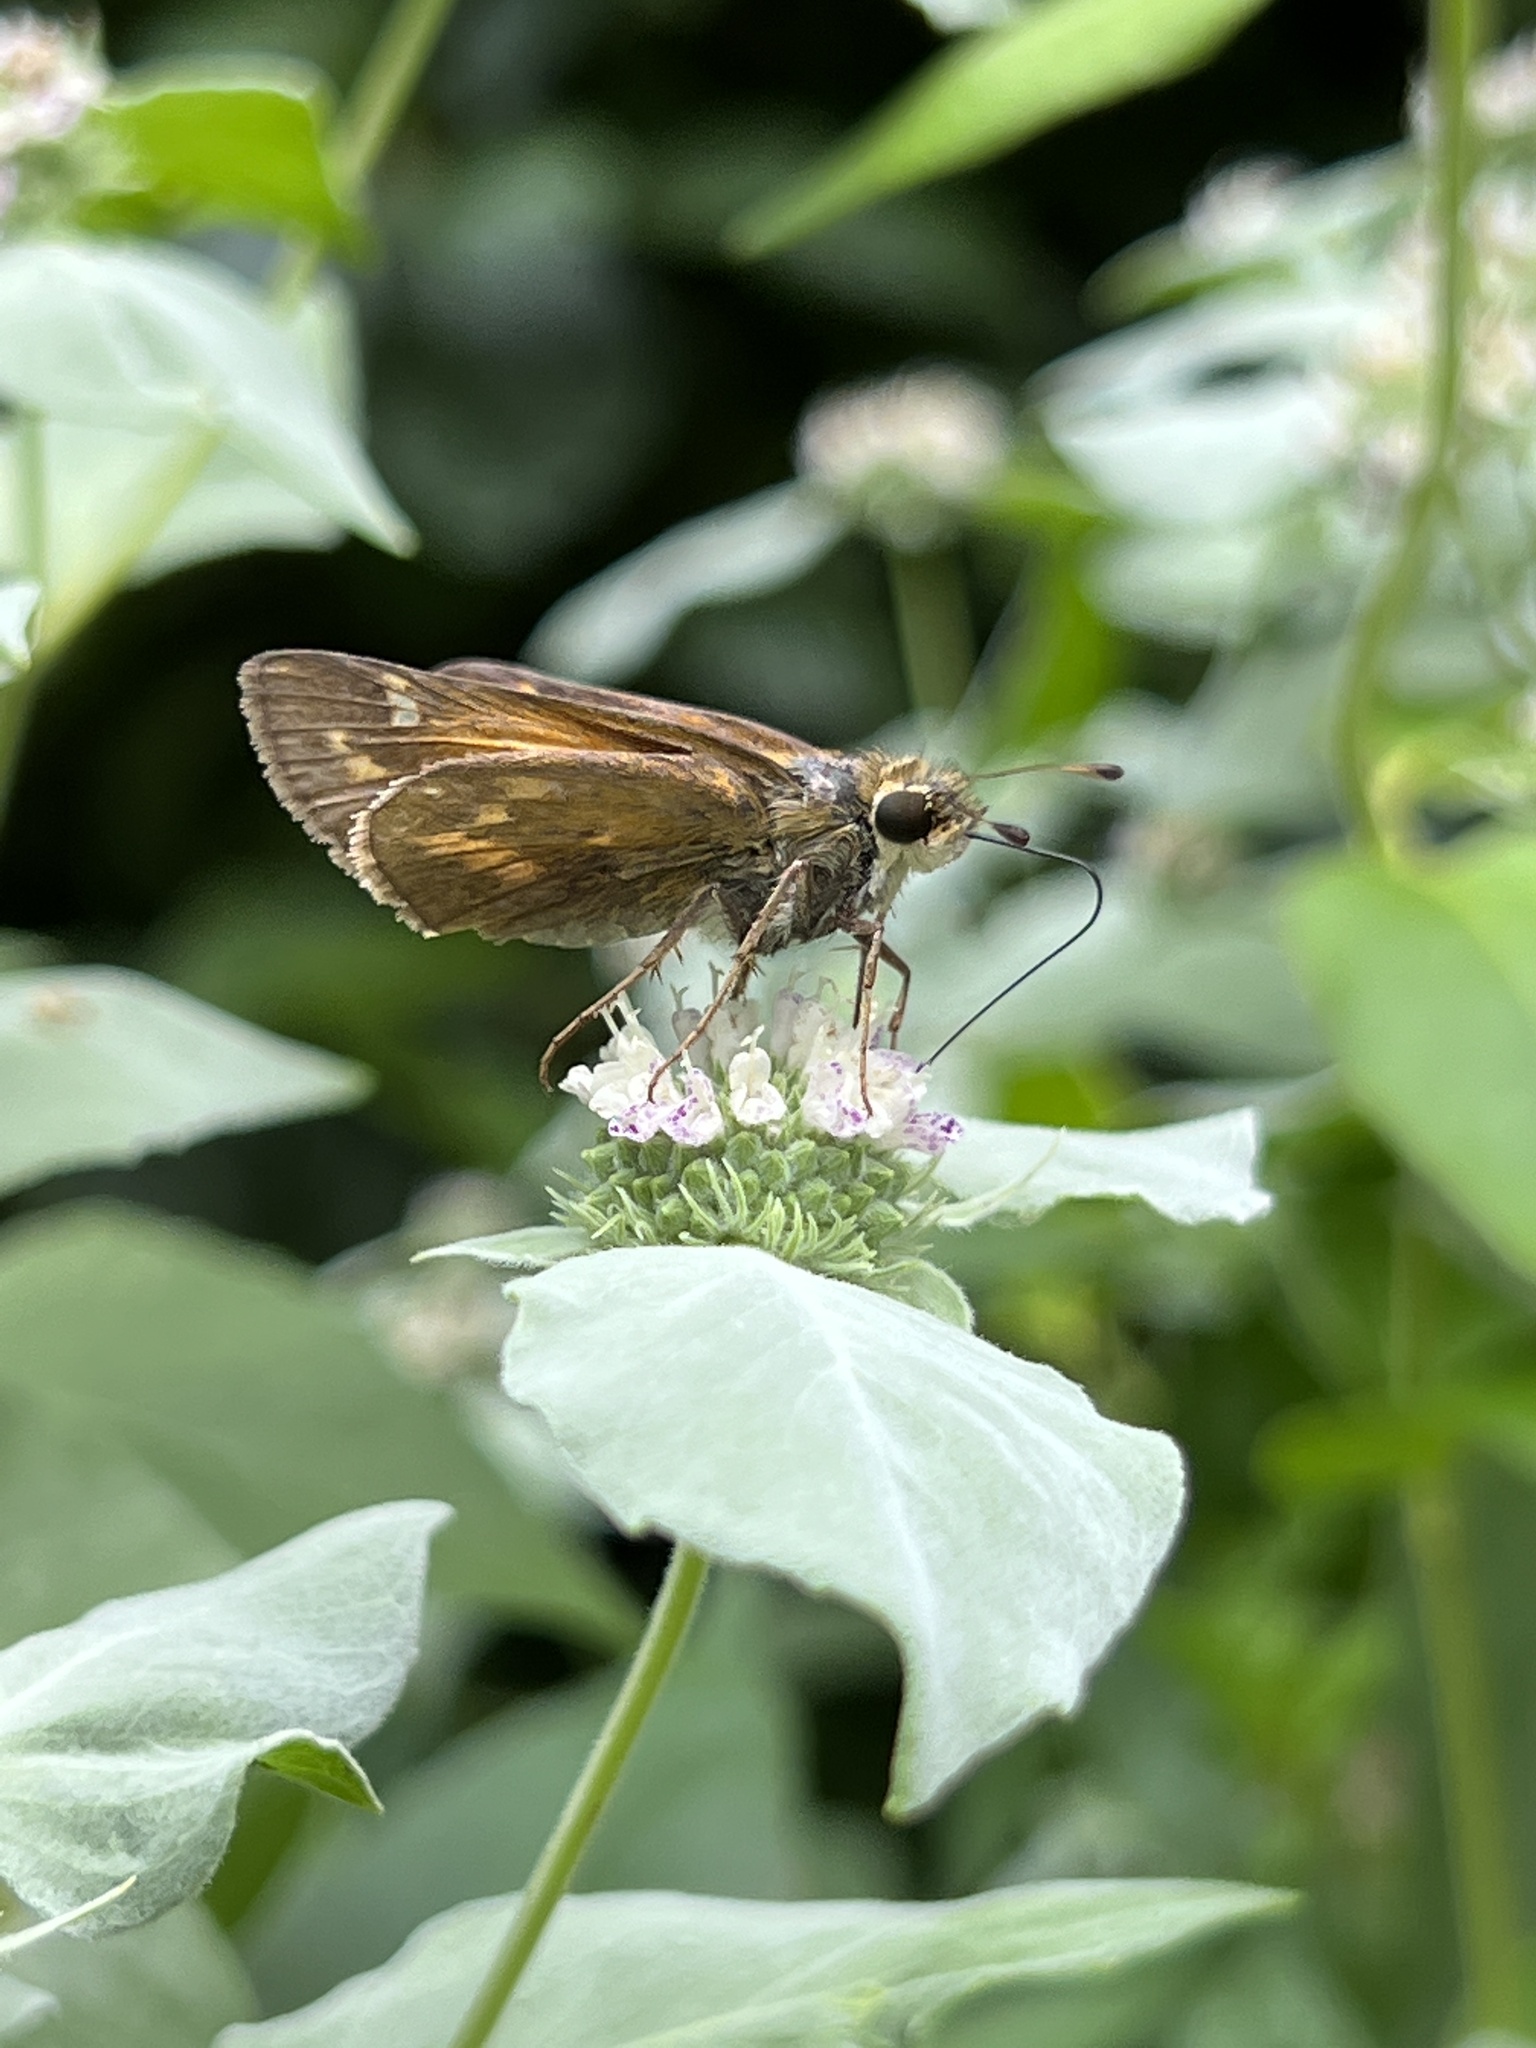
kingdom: Animalia
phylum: Arthropoda
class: Insecta
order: Lepidoptera
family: Hesperiidae
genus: Atalopedes
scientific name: Atalopedes
